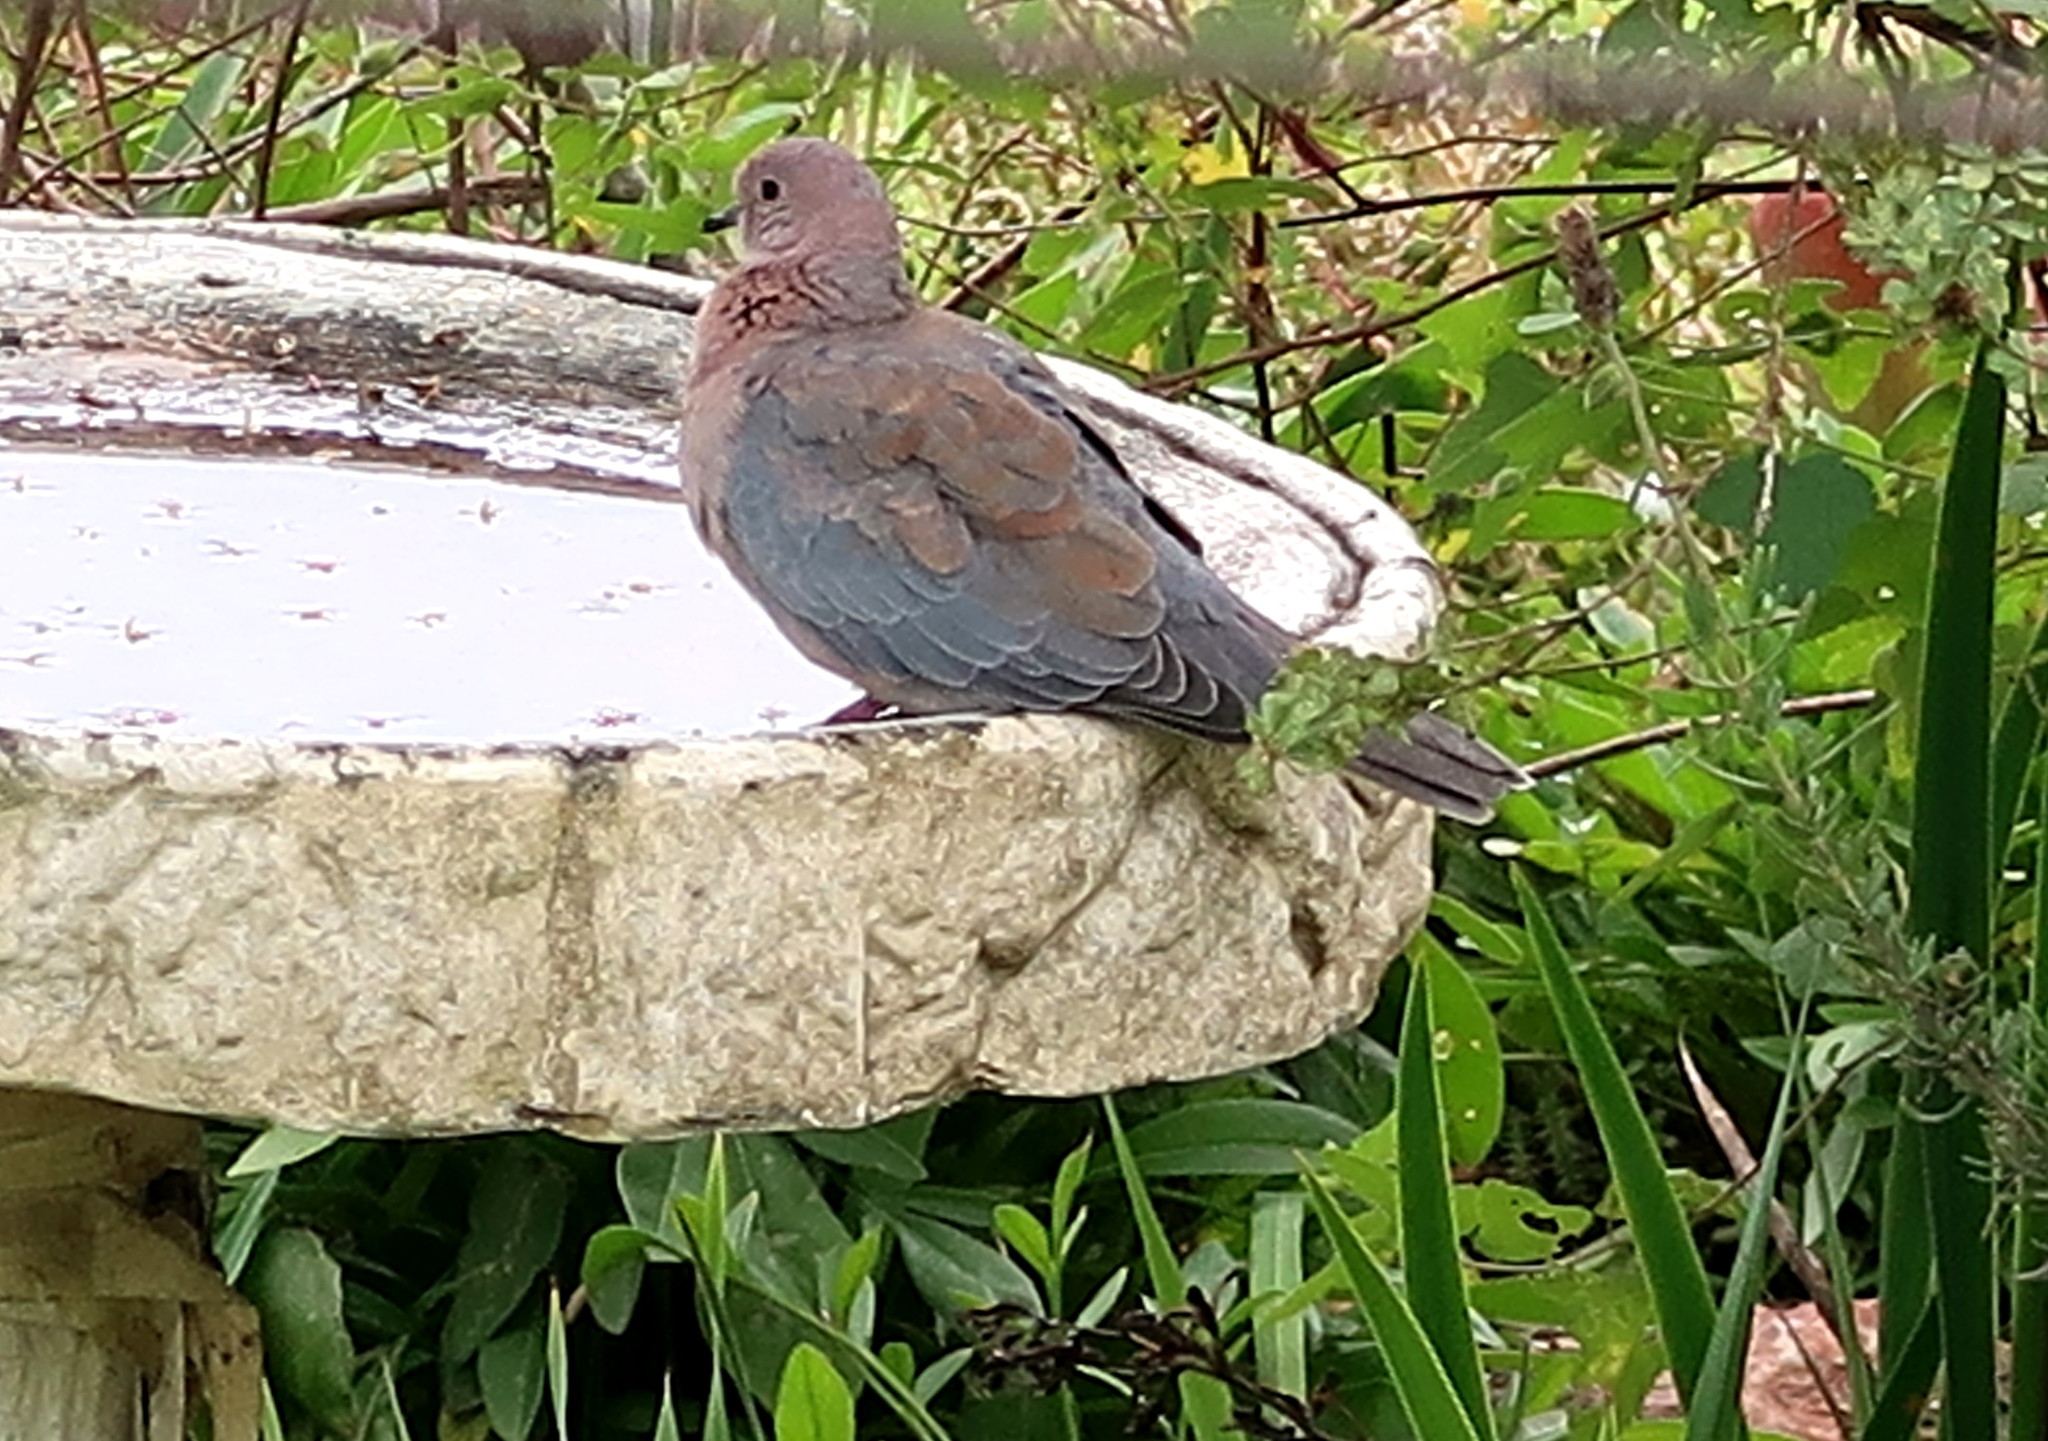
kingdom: Animalia
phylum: Chordata
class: Aves
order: Columbiformes
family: Columbidae
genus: Spilopelia
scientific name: Spilopelia senegalensis
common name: Laughing dove
